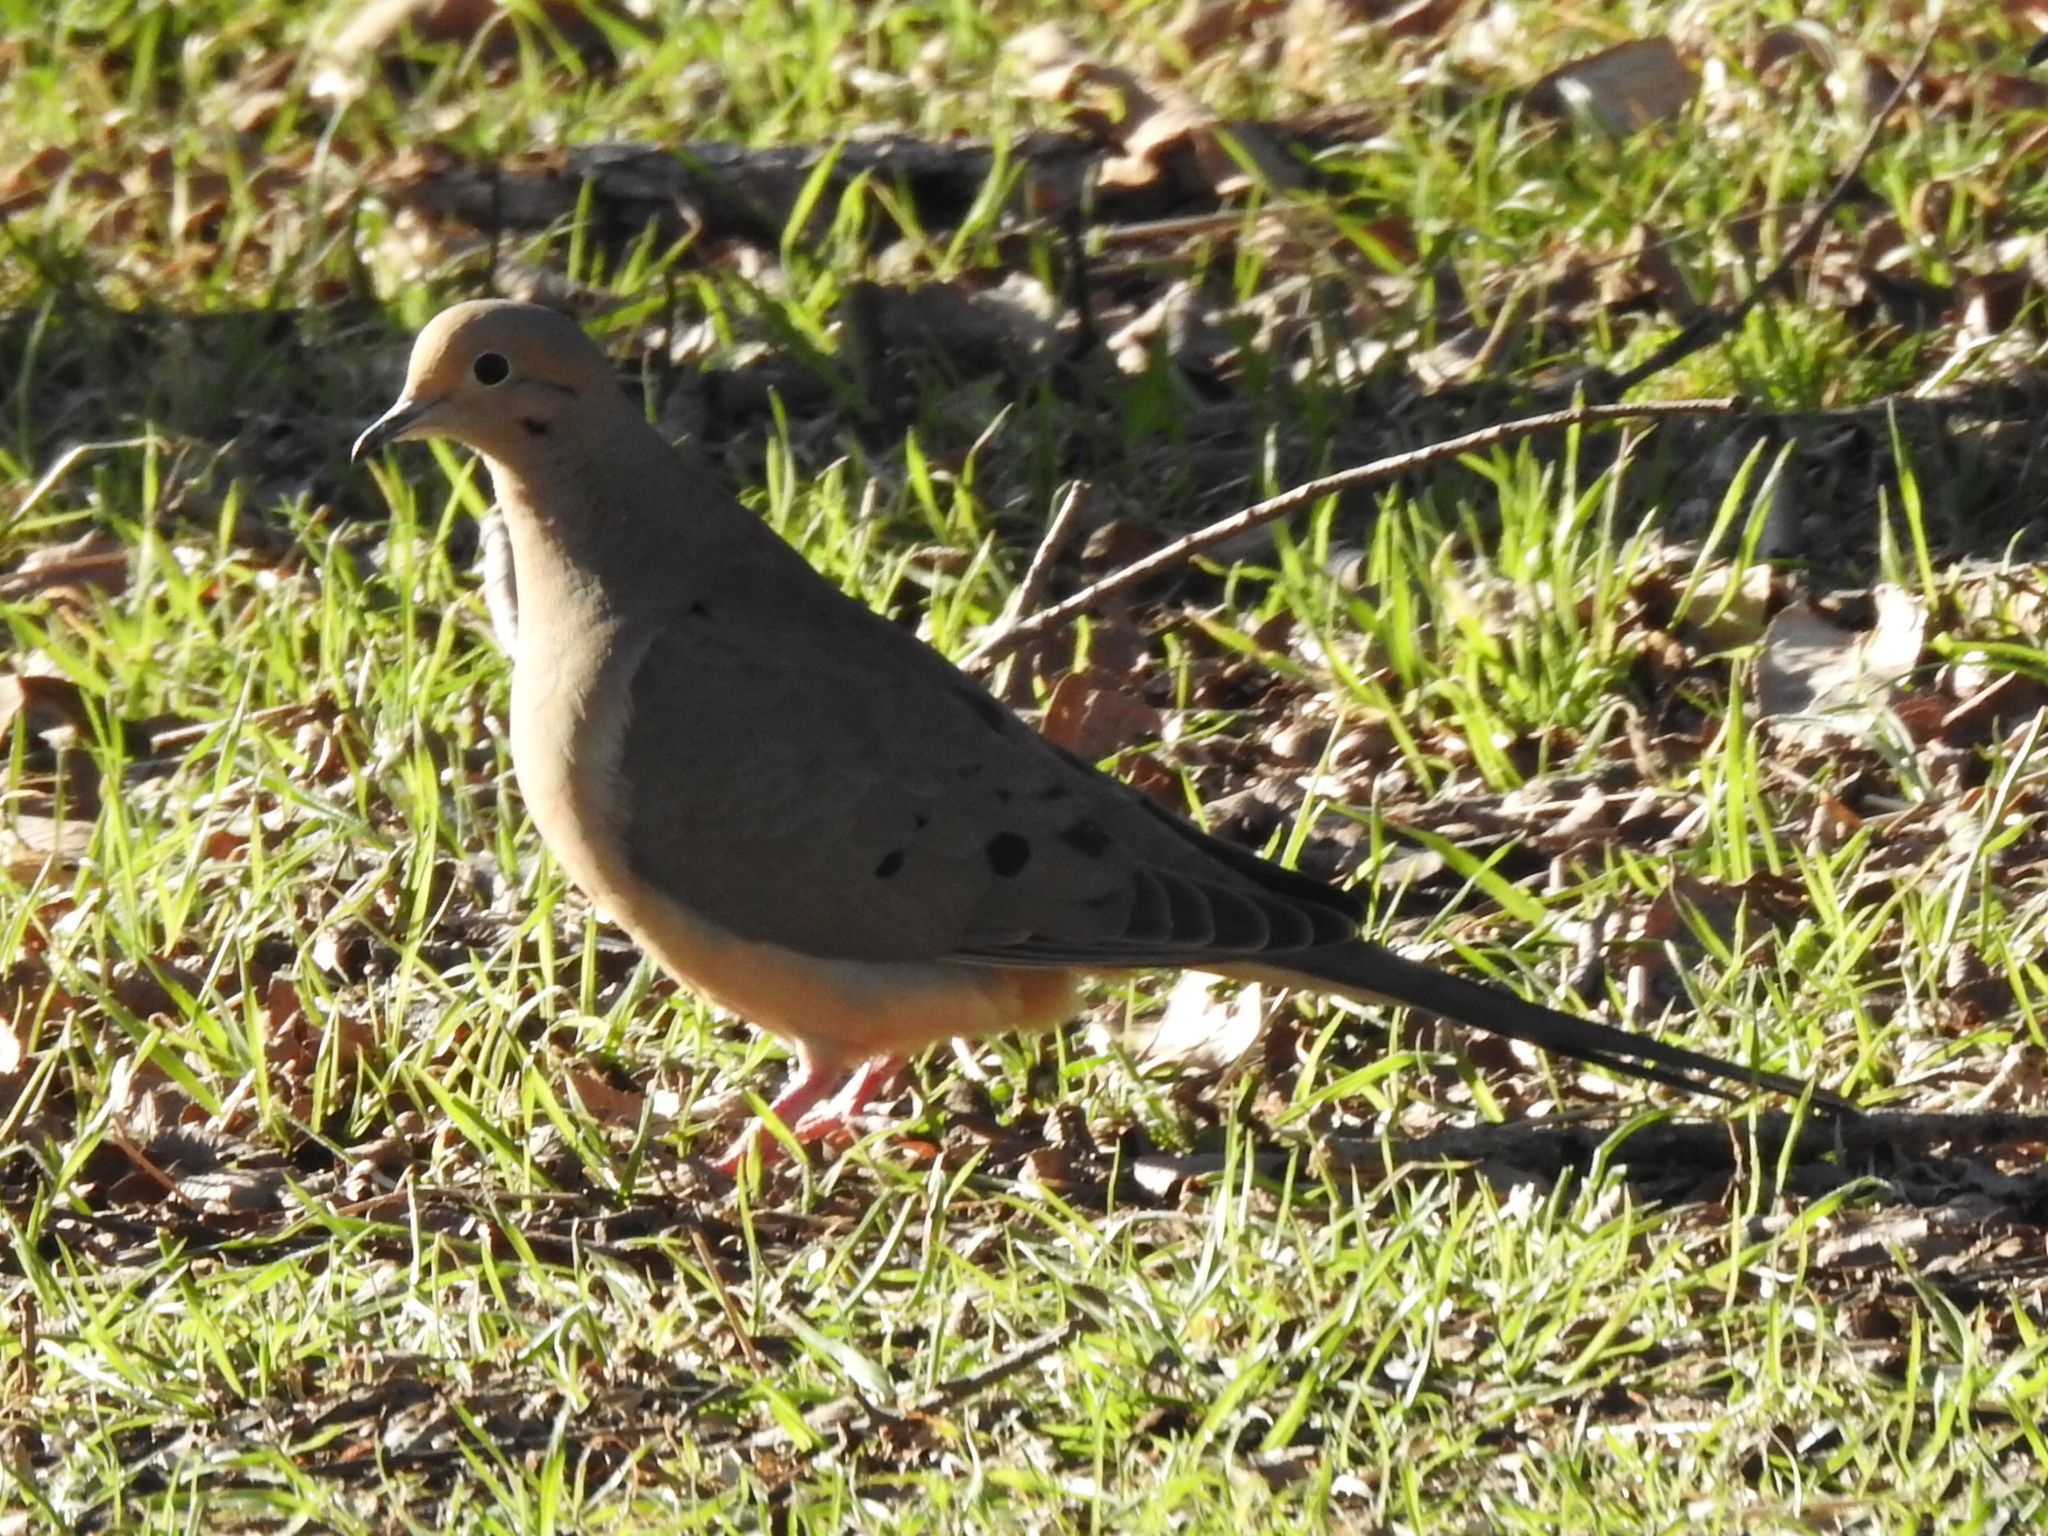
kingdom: Animalia
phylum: Chordata
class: Aves
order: Columbiformes
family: Columbidae
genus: Zenaida
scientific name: Zenaida macroura
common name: Mourning dove
